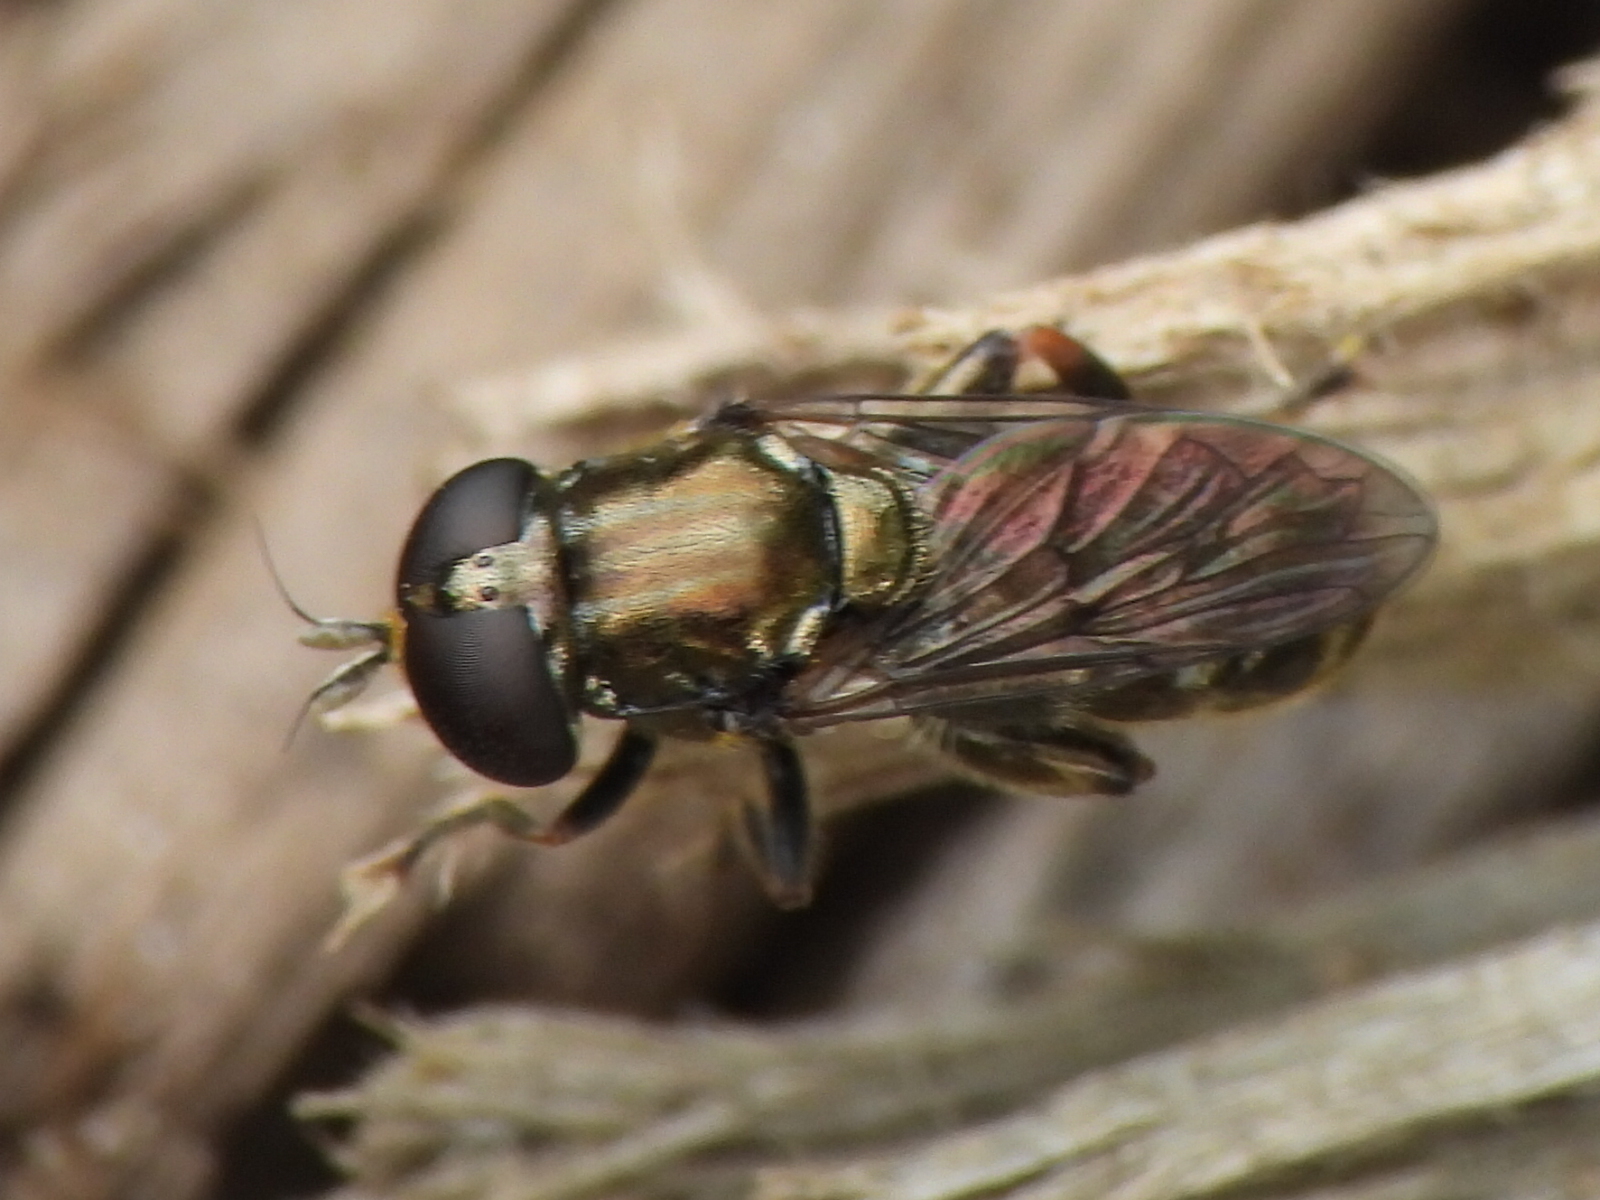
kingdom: Animalia
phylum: Arthropoda
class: Insecta
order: Diptera
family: Syrphidae
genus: Eumerus
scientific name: Eumerus
